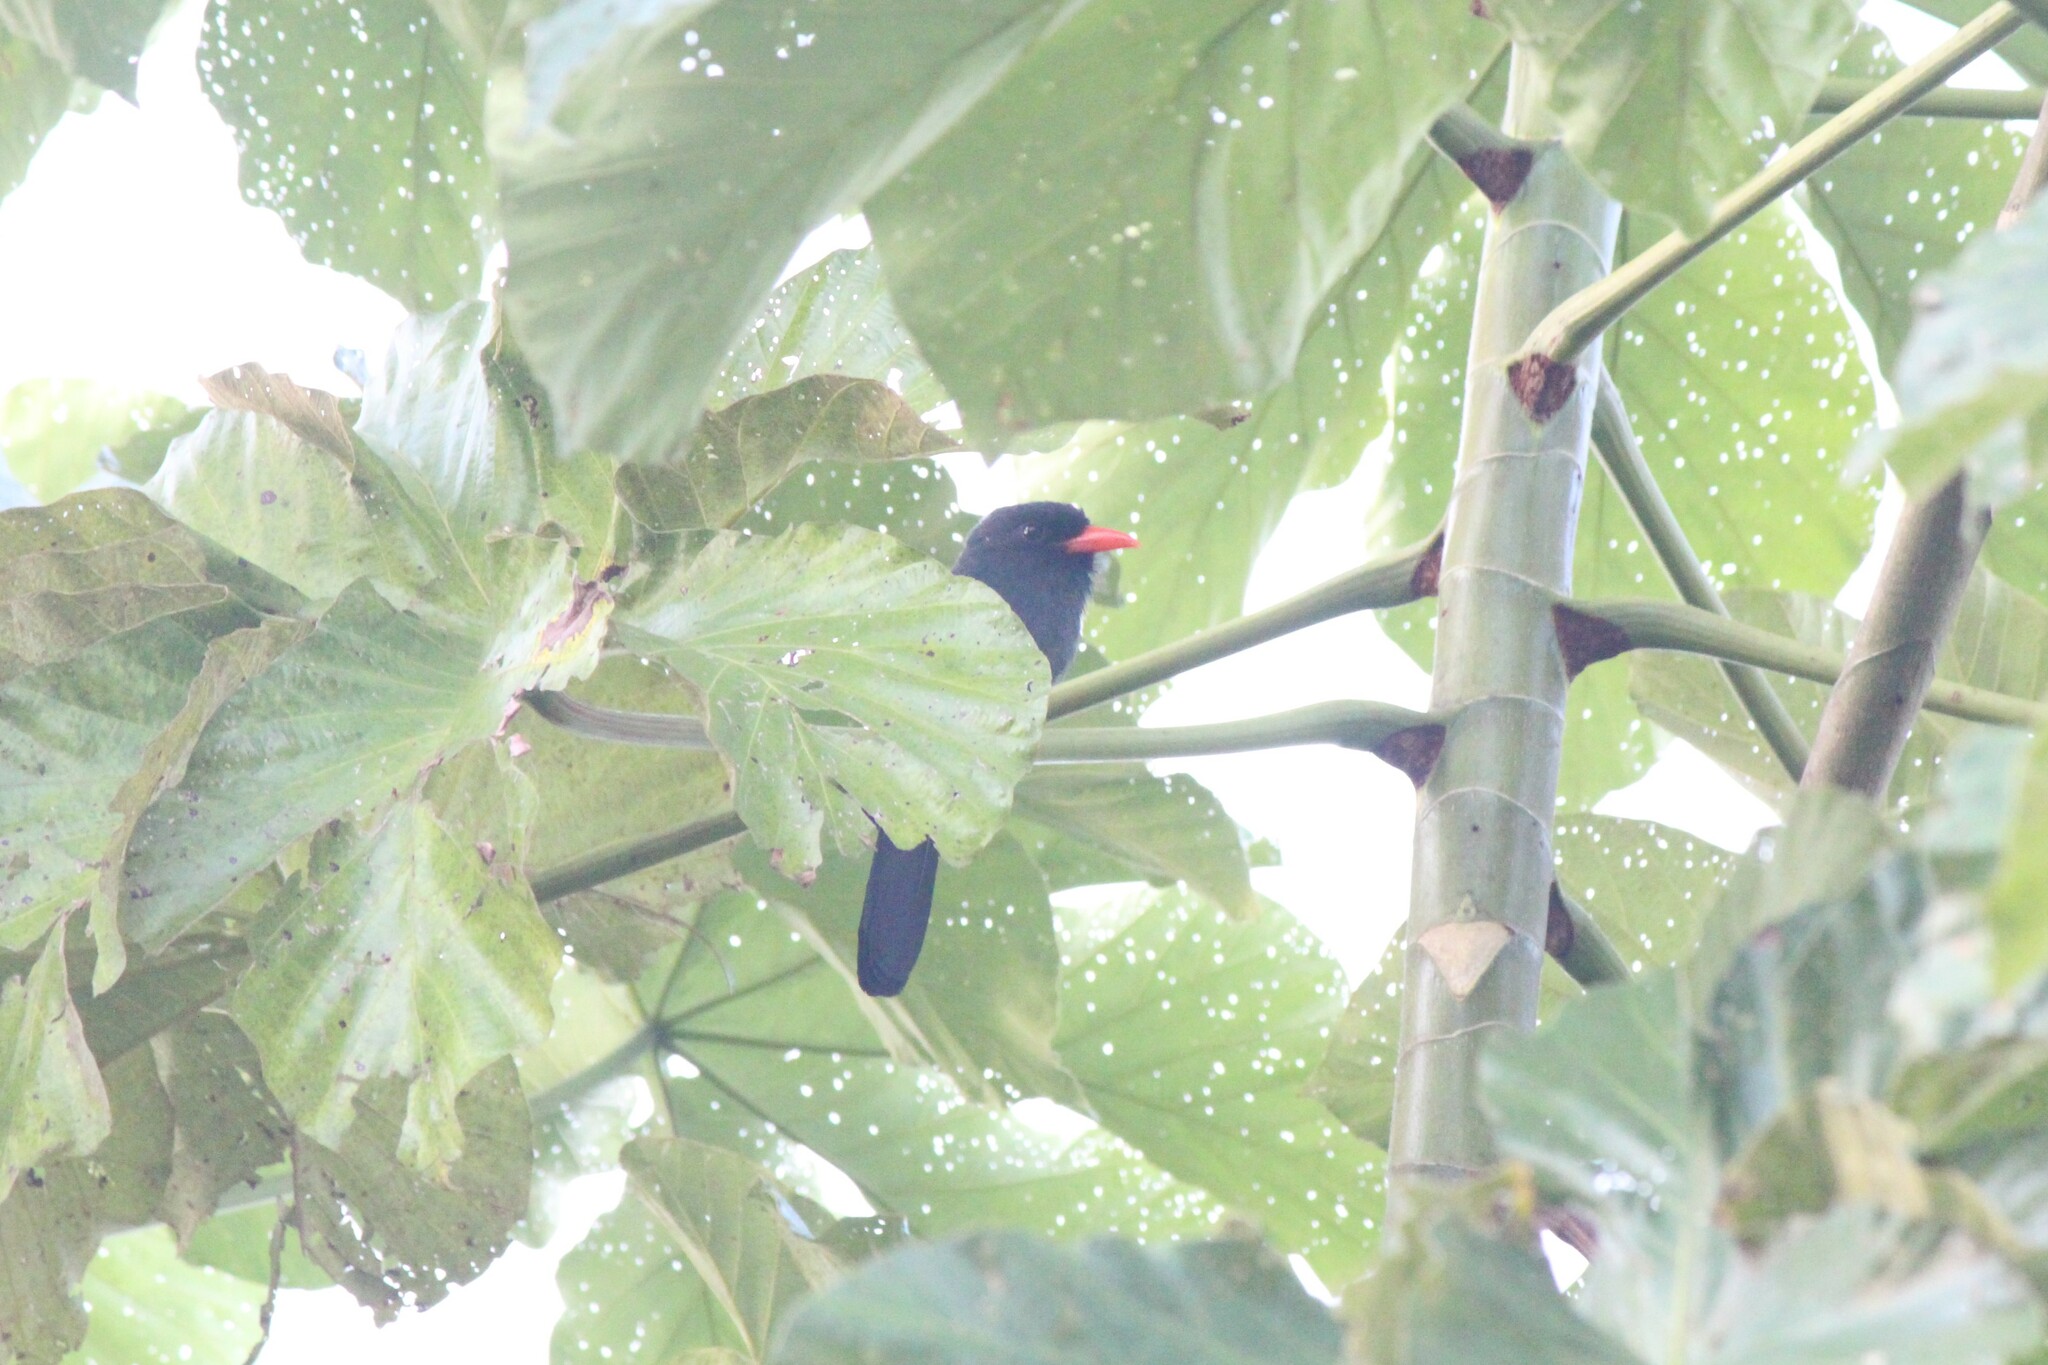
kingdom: Animalia
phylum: Chordata
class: Aves
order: Piciformes
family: Bucconidae
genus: Monasa
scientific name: Monasa nigrifrons
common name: Black-fronted nunbird
